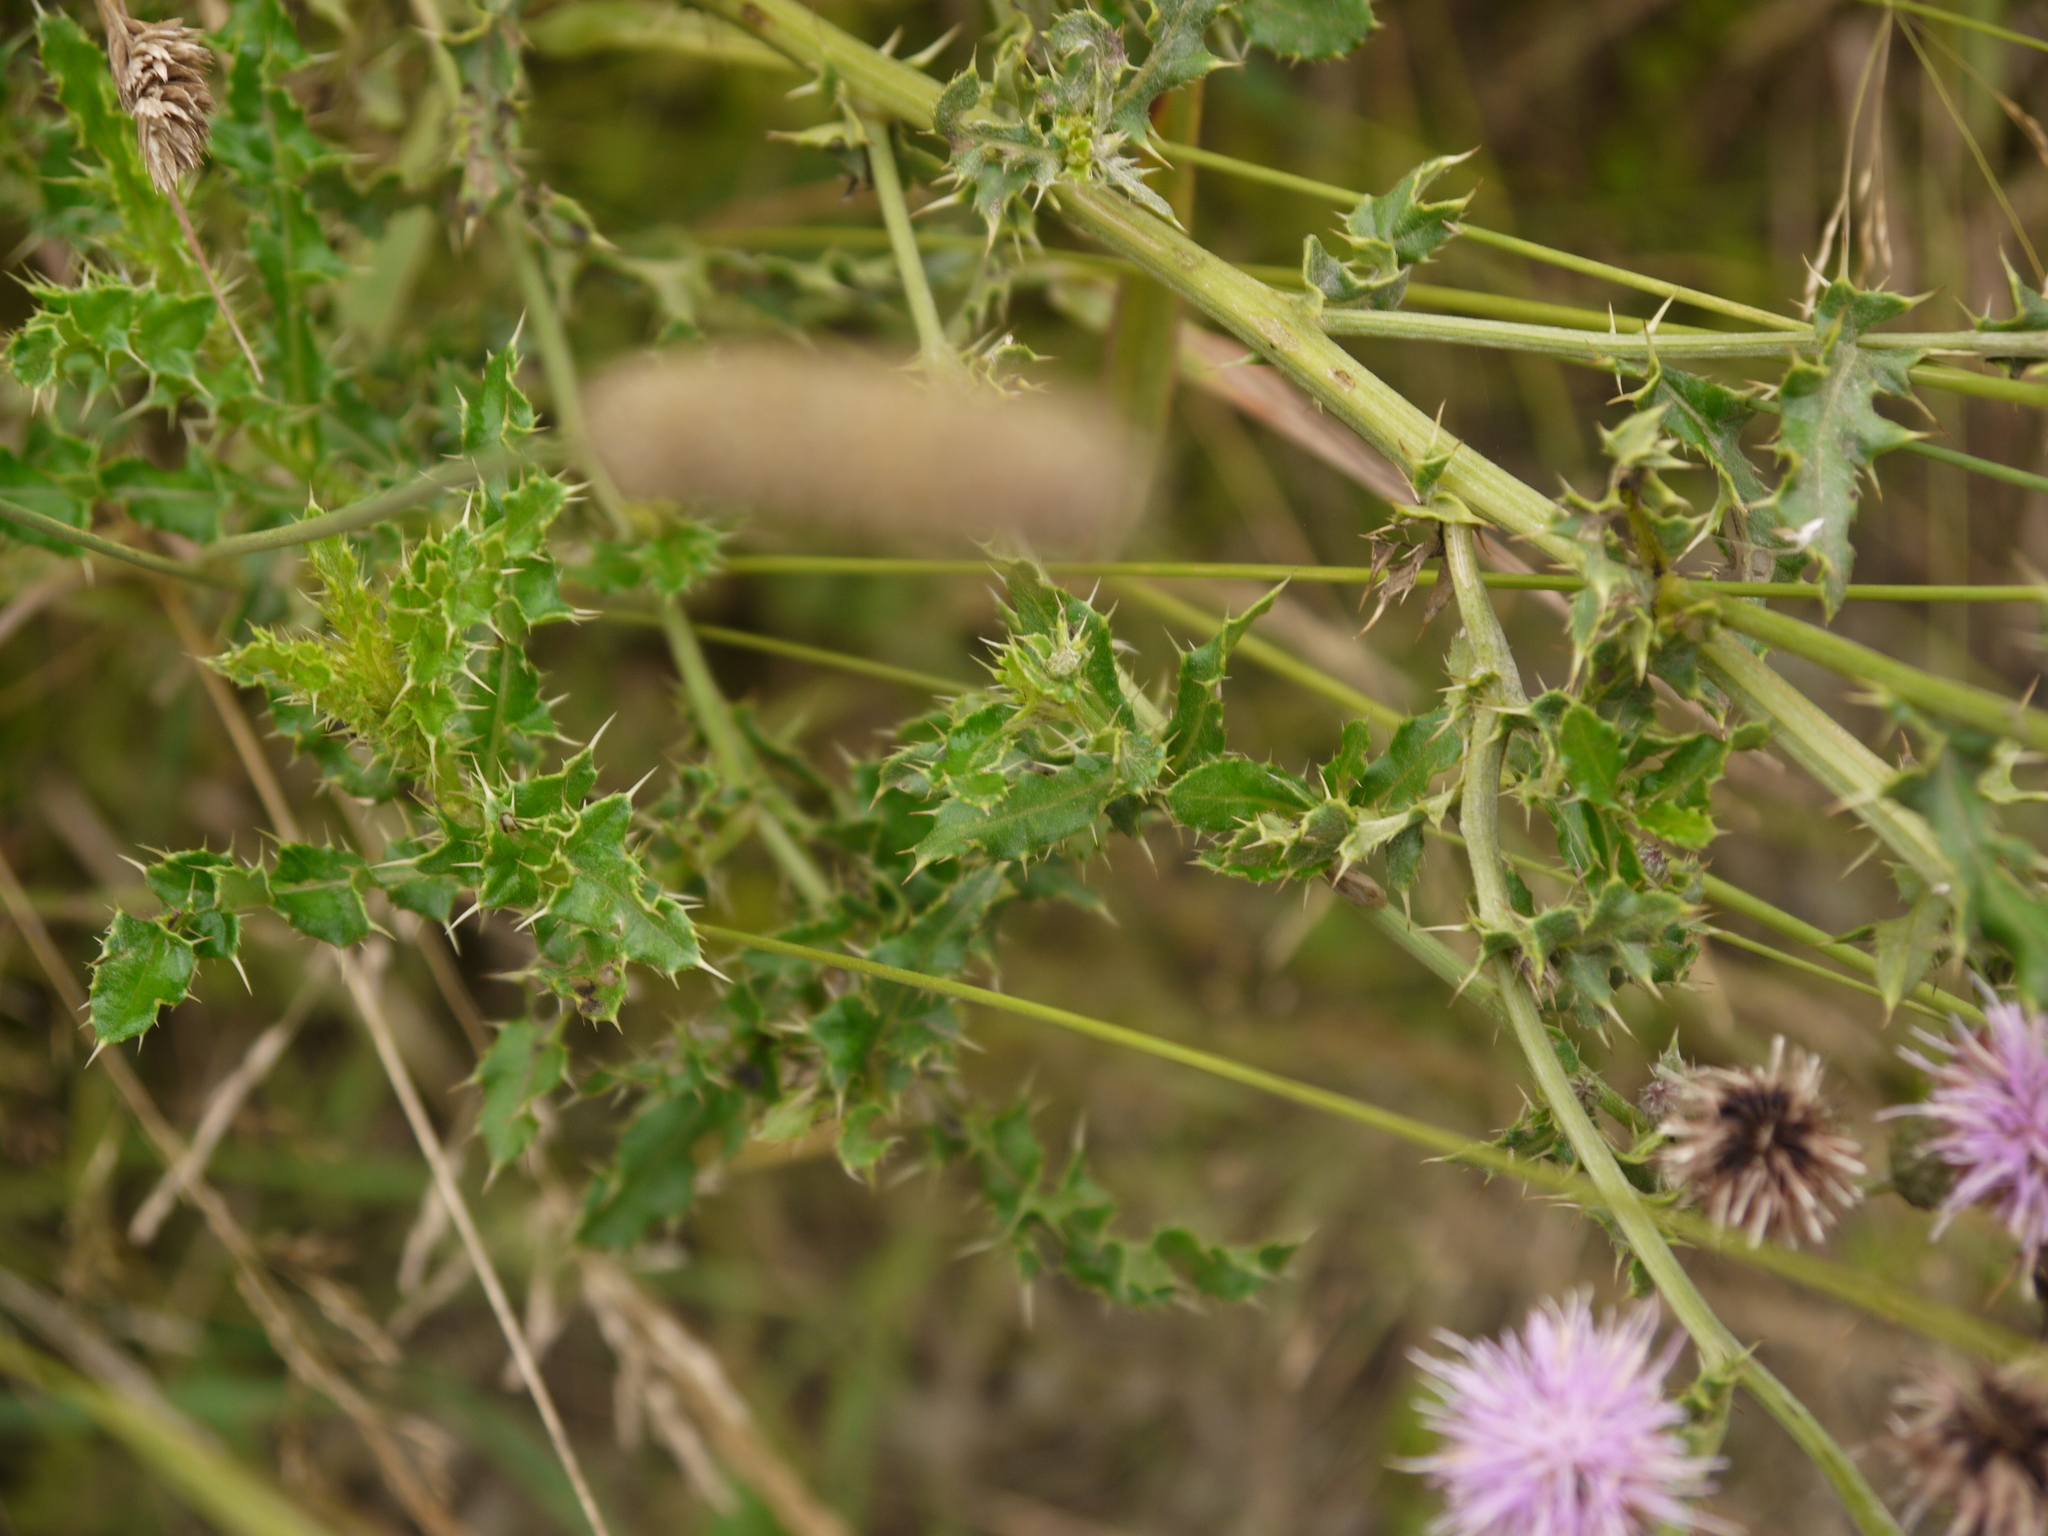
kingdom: Plantae
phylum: Tracheophyta
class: Magnoliopsida
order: Asterales
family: Asteraceae
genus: Cirsium
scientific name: Cirsium arvense
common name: Creeping thistle
